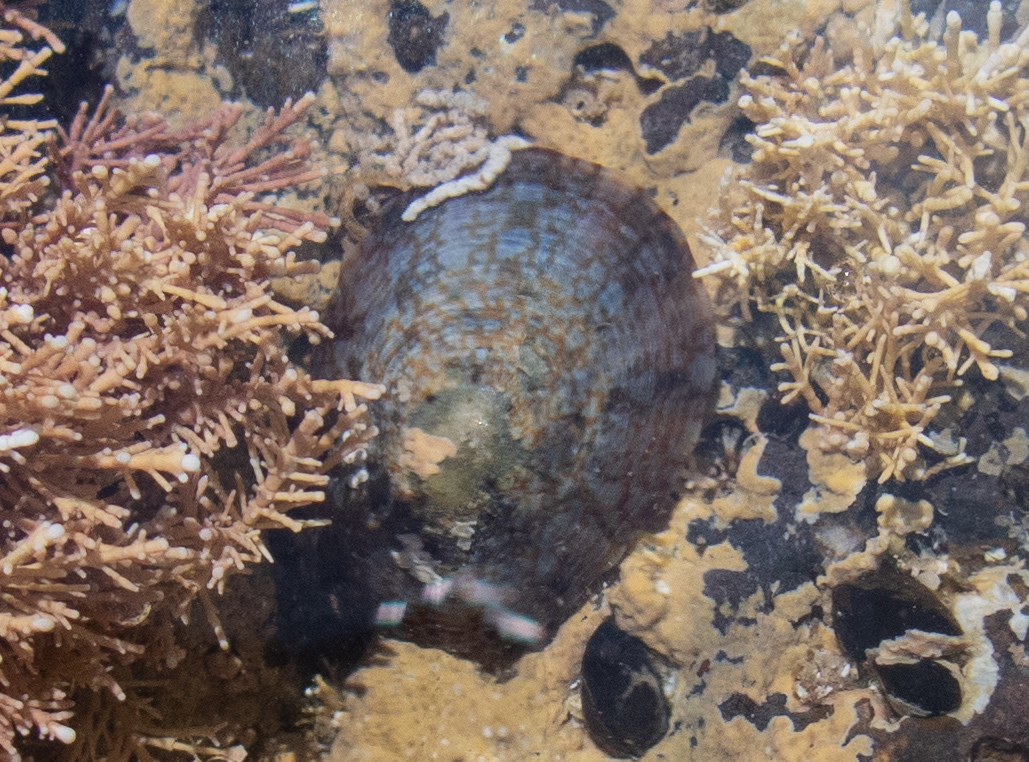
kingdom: Animalia
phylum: Mollusca
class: Gastropoda
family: Nacellidae
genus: Cellana
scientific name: Cellana tramoserica
